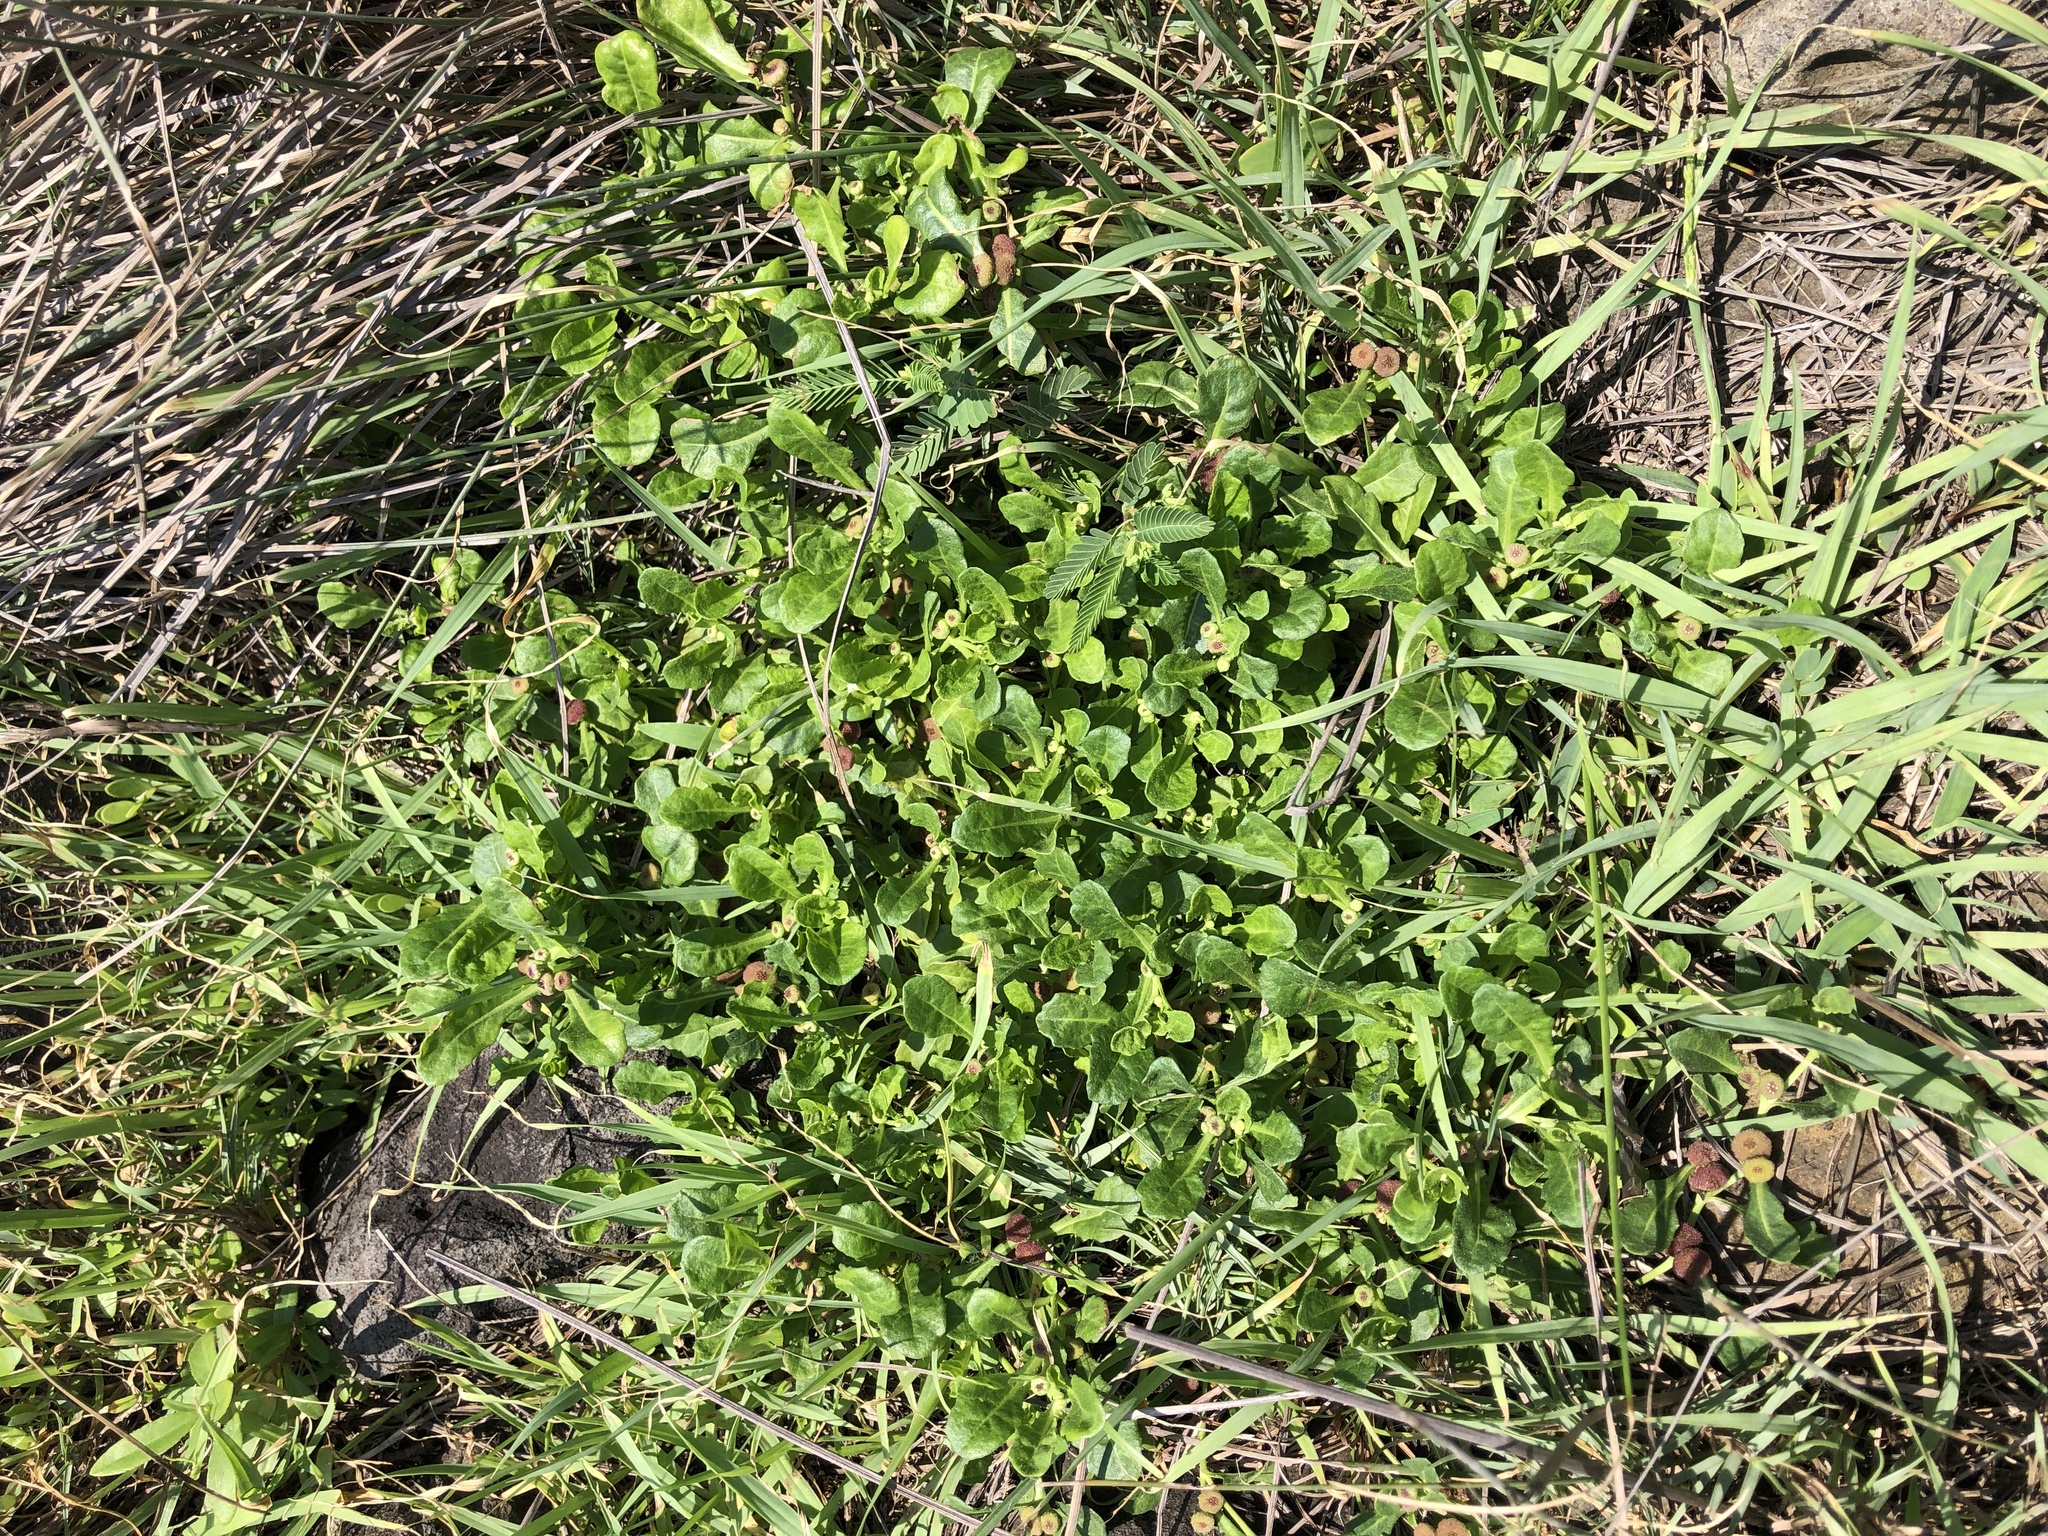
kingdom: Plantae
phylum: Tracheophyta
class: Magnoliopsida
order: Asterales
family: Asteraceae
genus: Sphaeromorphaea
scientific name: Sphaeromorphaea australis
